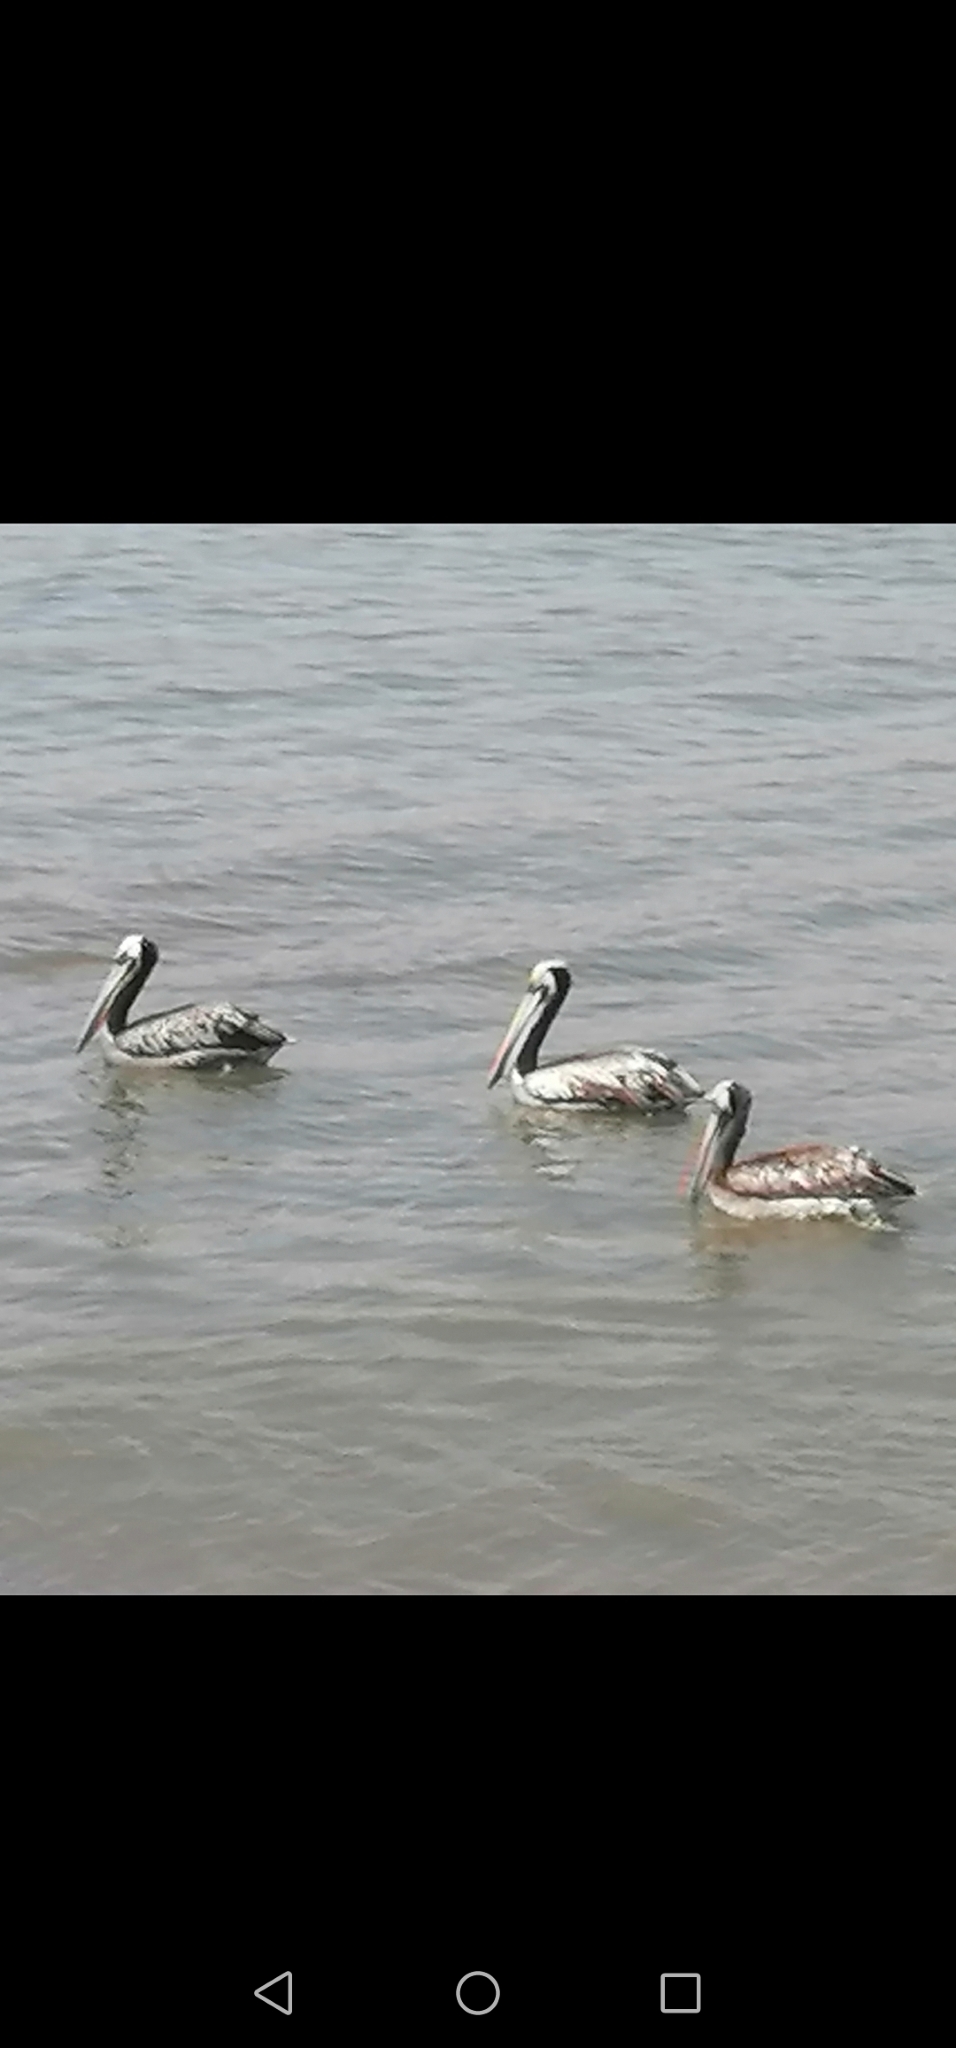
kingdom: Animalia
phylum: Chordata
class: Aves
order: Pelecaniformes
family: Pelecanidae
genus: Pelecanus
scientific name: Pelecanus thagus
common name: Peruvian pelican
